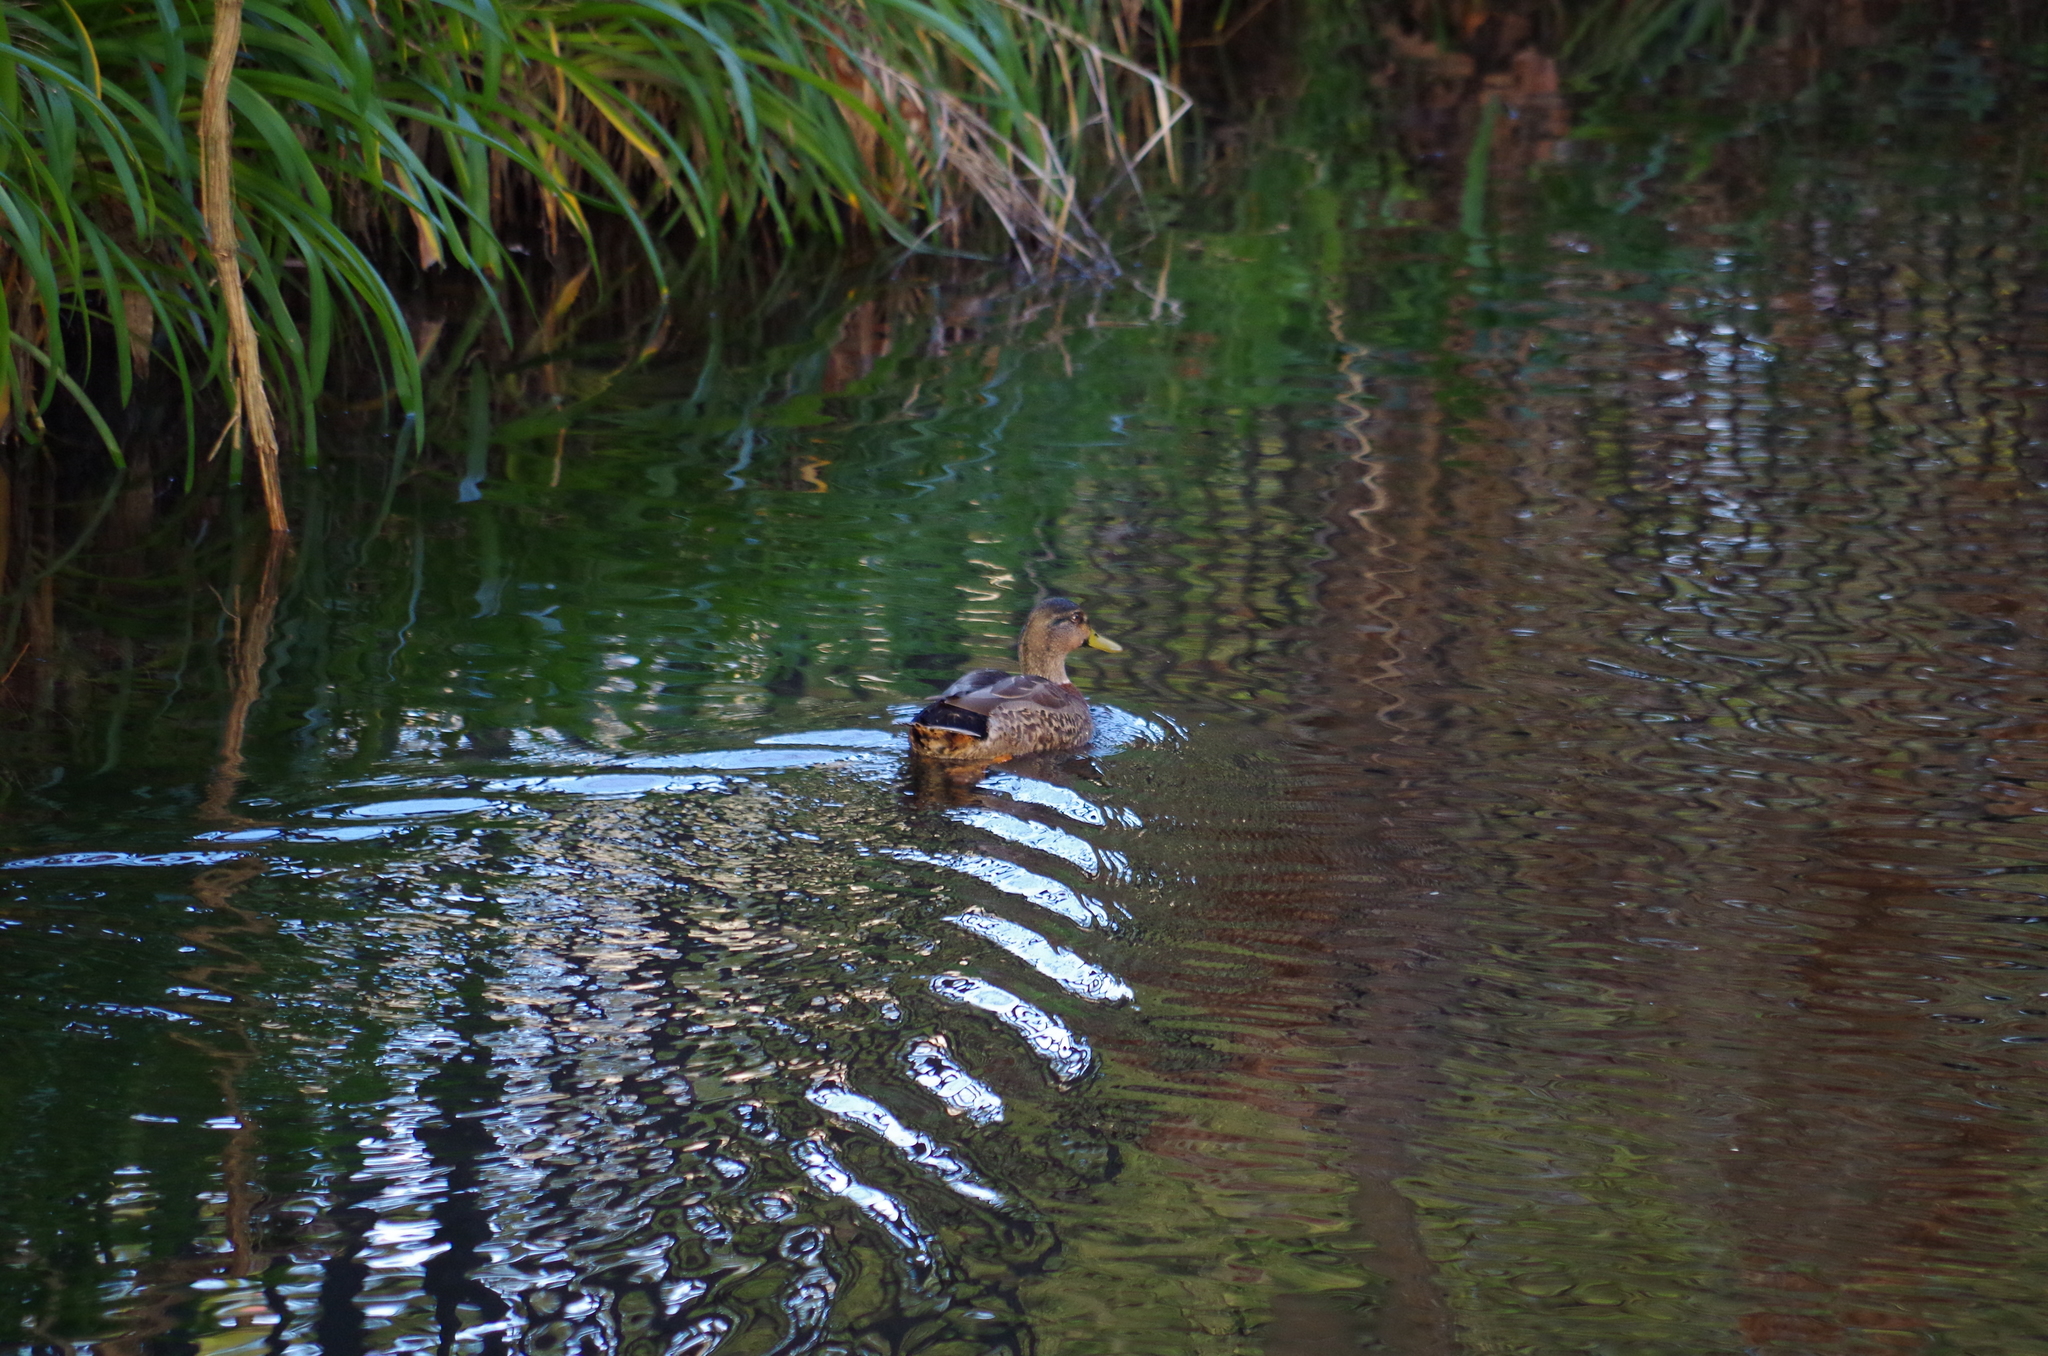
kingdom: Animalia
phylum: Chordata
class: Aves
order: Anseriformes
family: Anatidae
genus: Anas
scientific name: Anas
